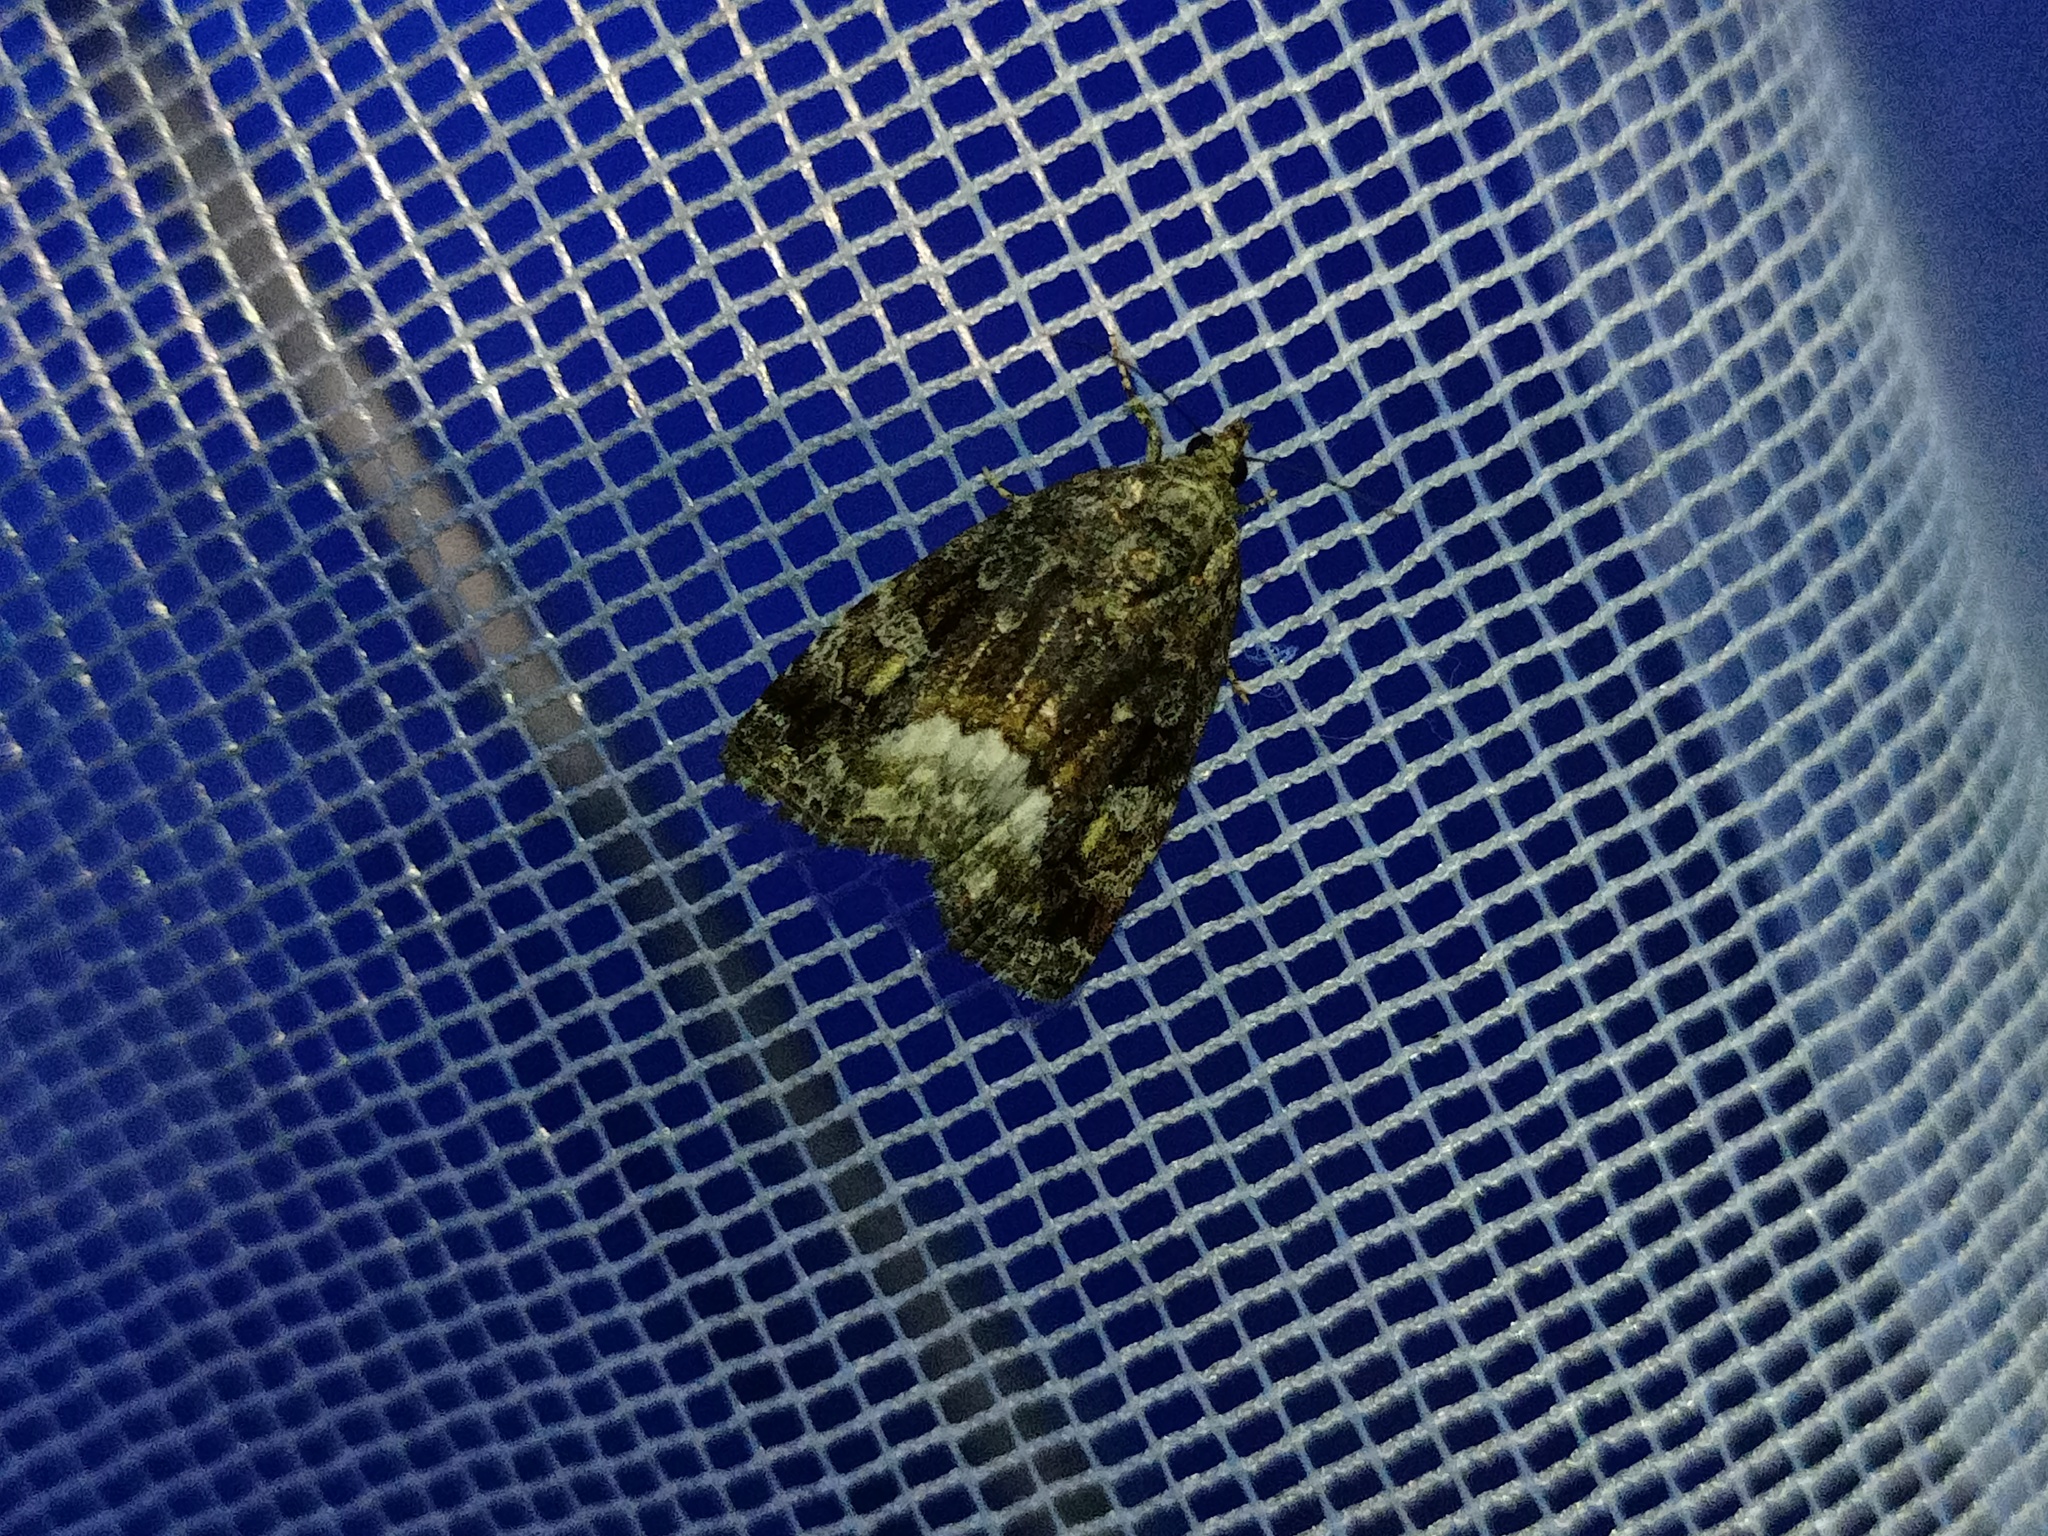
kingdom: Animalia
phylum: Arthropoda
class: Insecta
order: Lepidoptera
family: Noctuidae
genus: Deltote
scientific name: Deltote pygarga
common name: Marbled white spot
